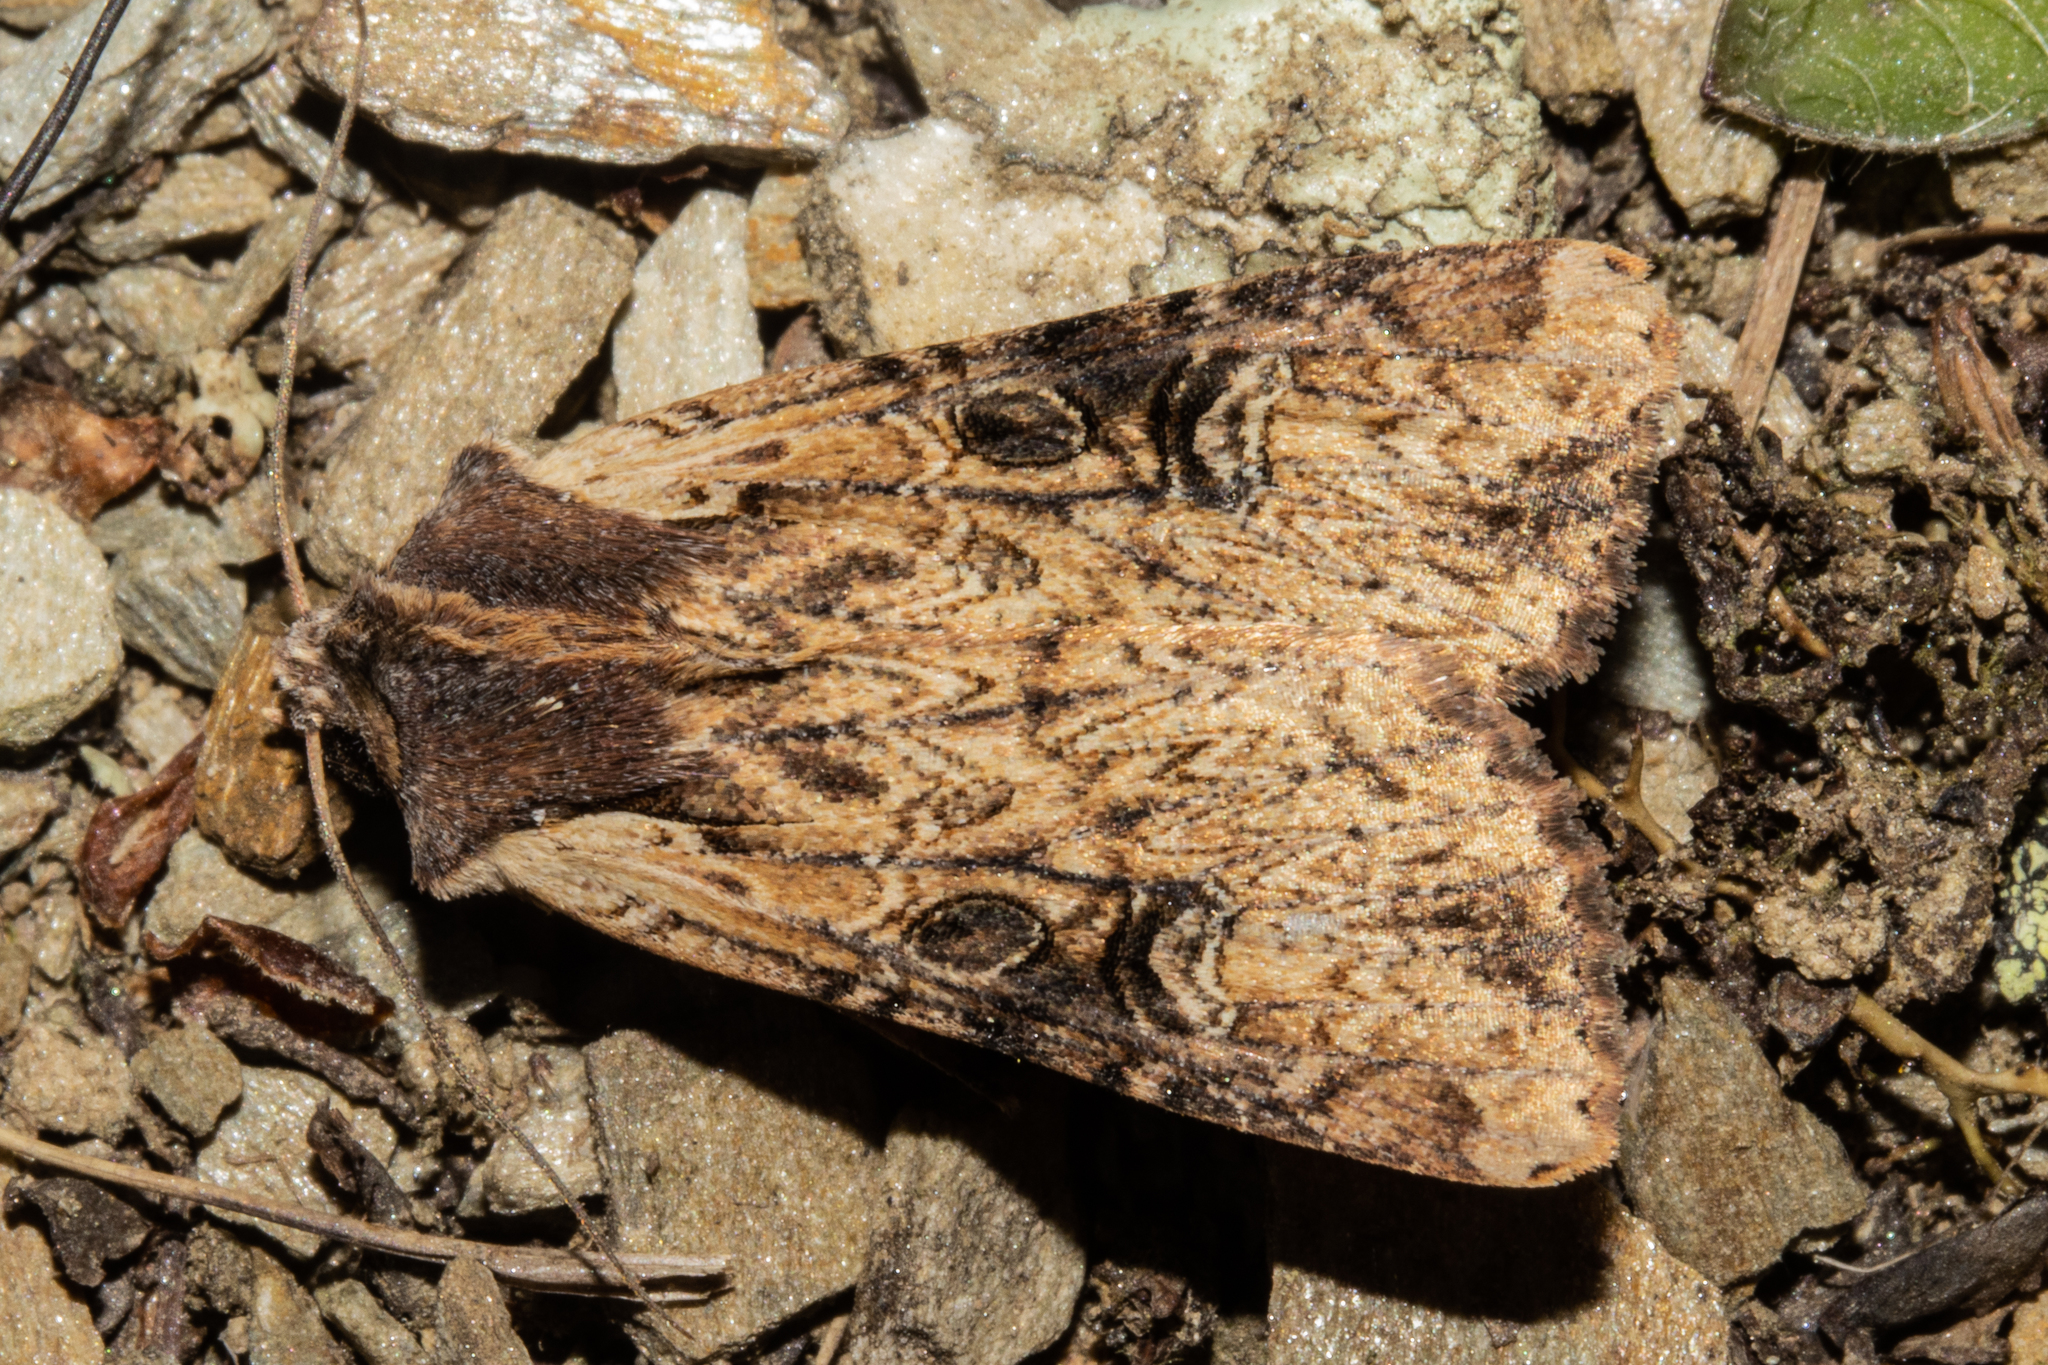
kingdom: Animalia
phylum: Arthropoda
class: Insecta
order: Lepidoptera
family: Noctuidae
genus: Ichneutica
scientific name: Ichneutica omoplaca
